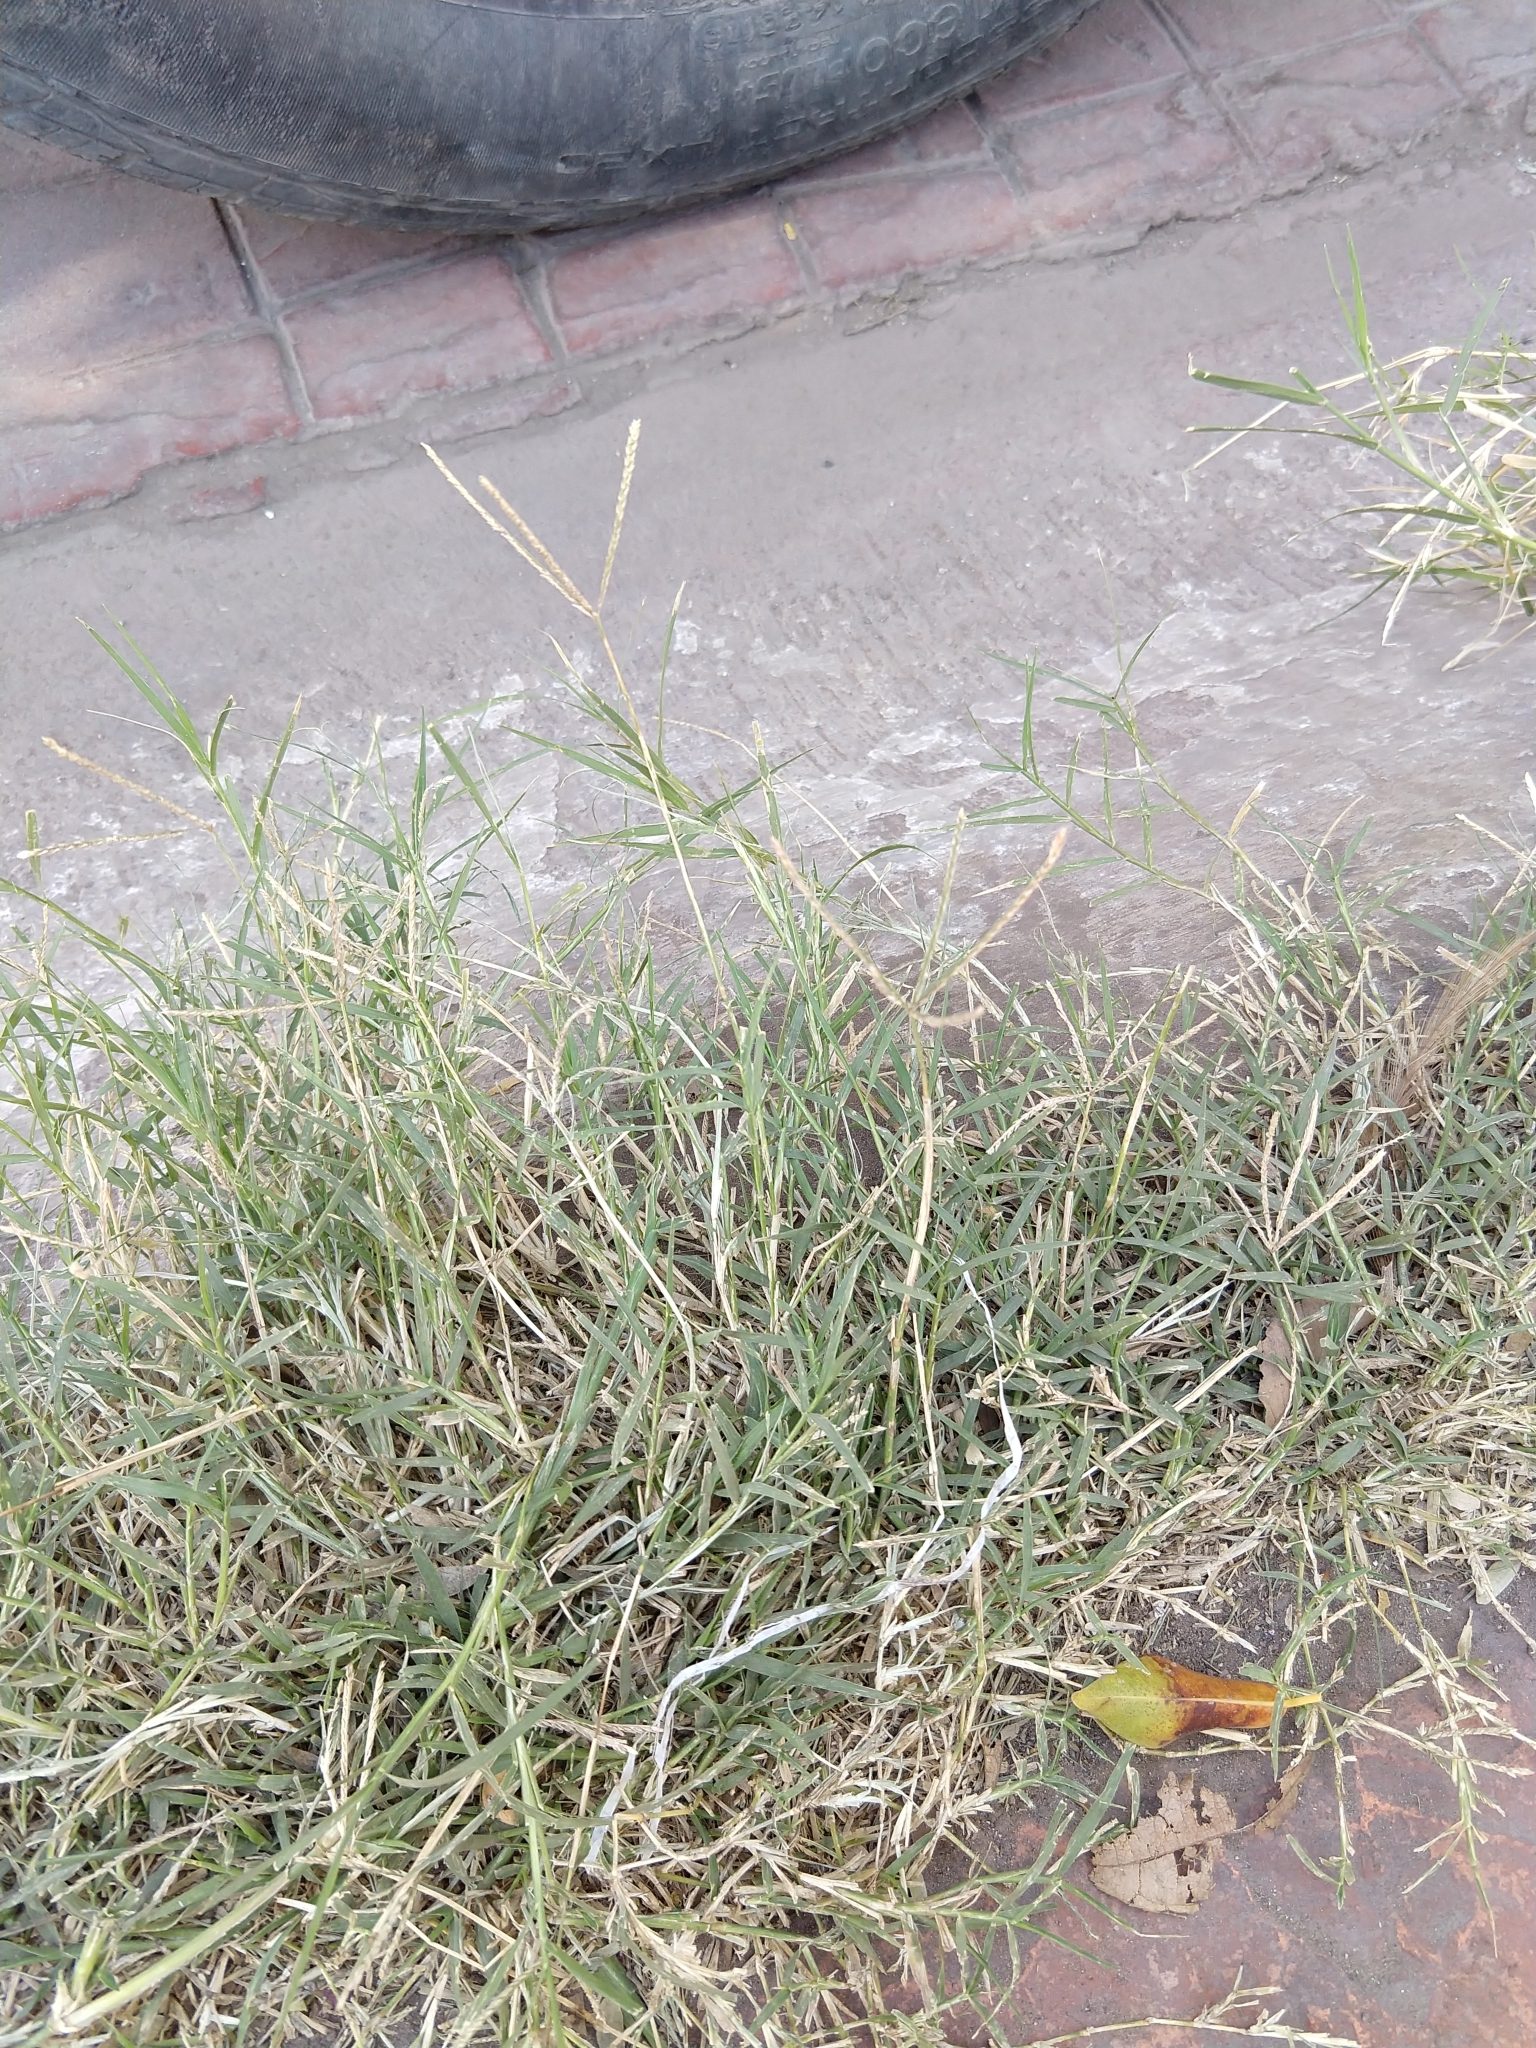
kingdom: Plantae
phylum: Tracheophyta
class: Liliopsida
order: Poales
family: Poaceae
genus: Cynodon
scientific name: Cynodon dactylon
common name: Bermuda grass
